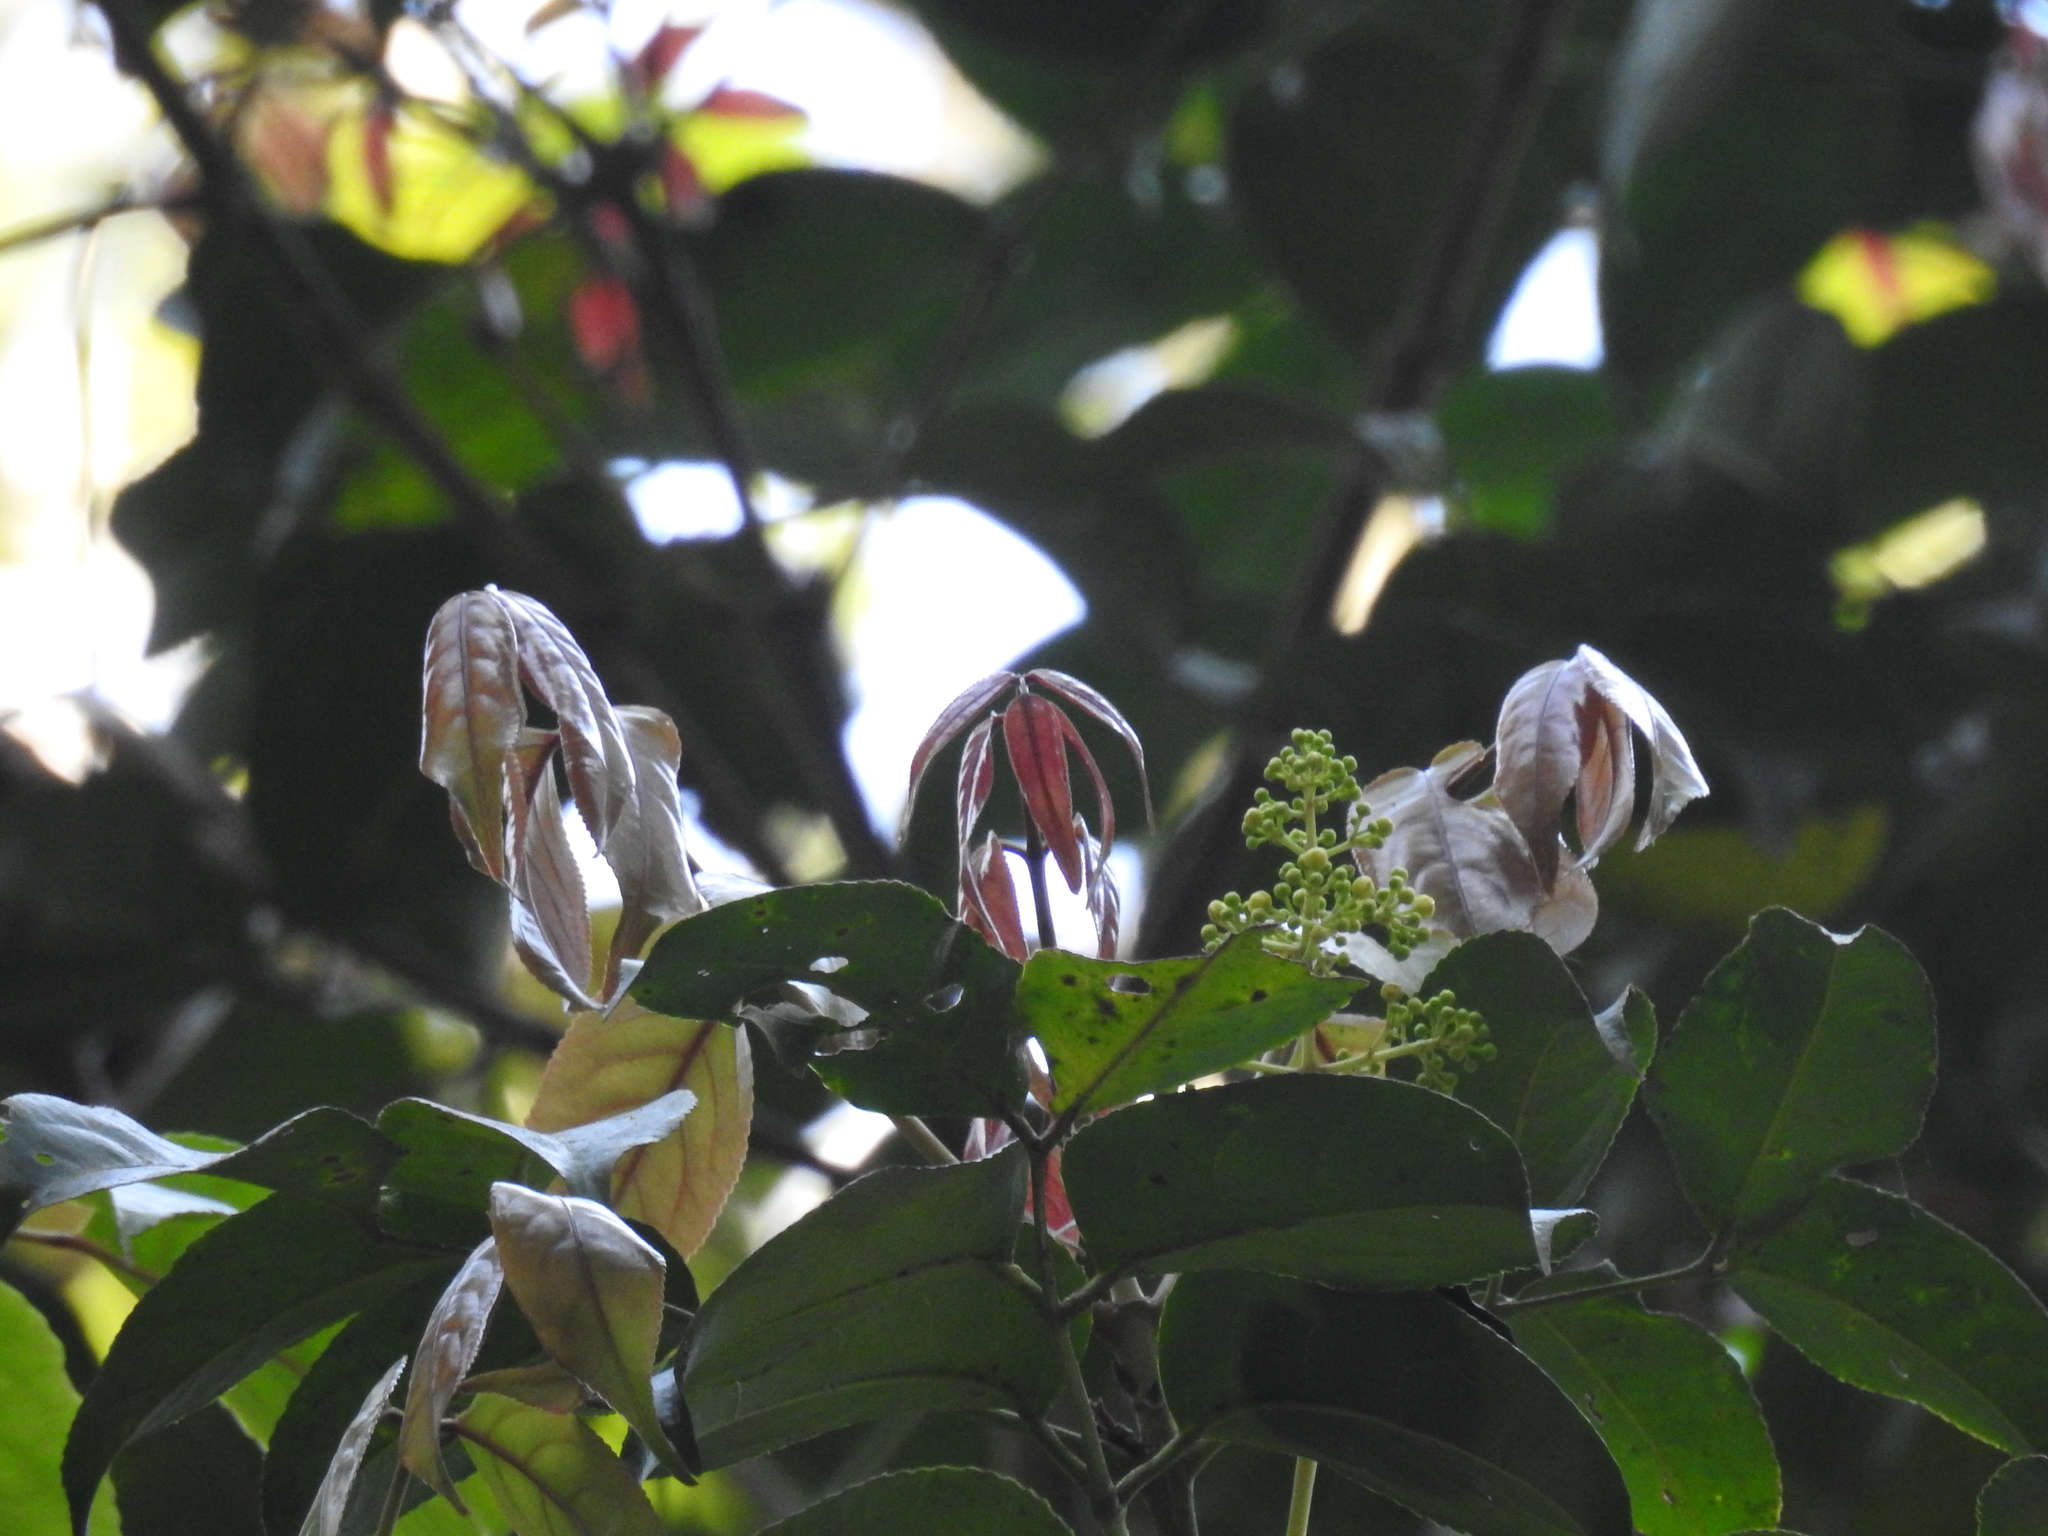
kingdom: Plantae
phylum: Tracheophyta
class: Magnoliopsida
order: Crossosomatales
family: Staphyleaceae
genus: Staphylea
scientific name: Staphylea
